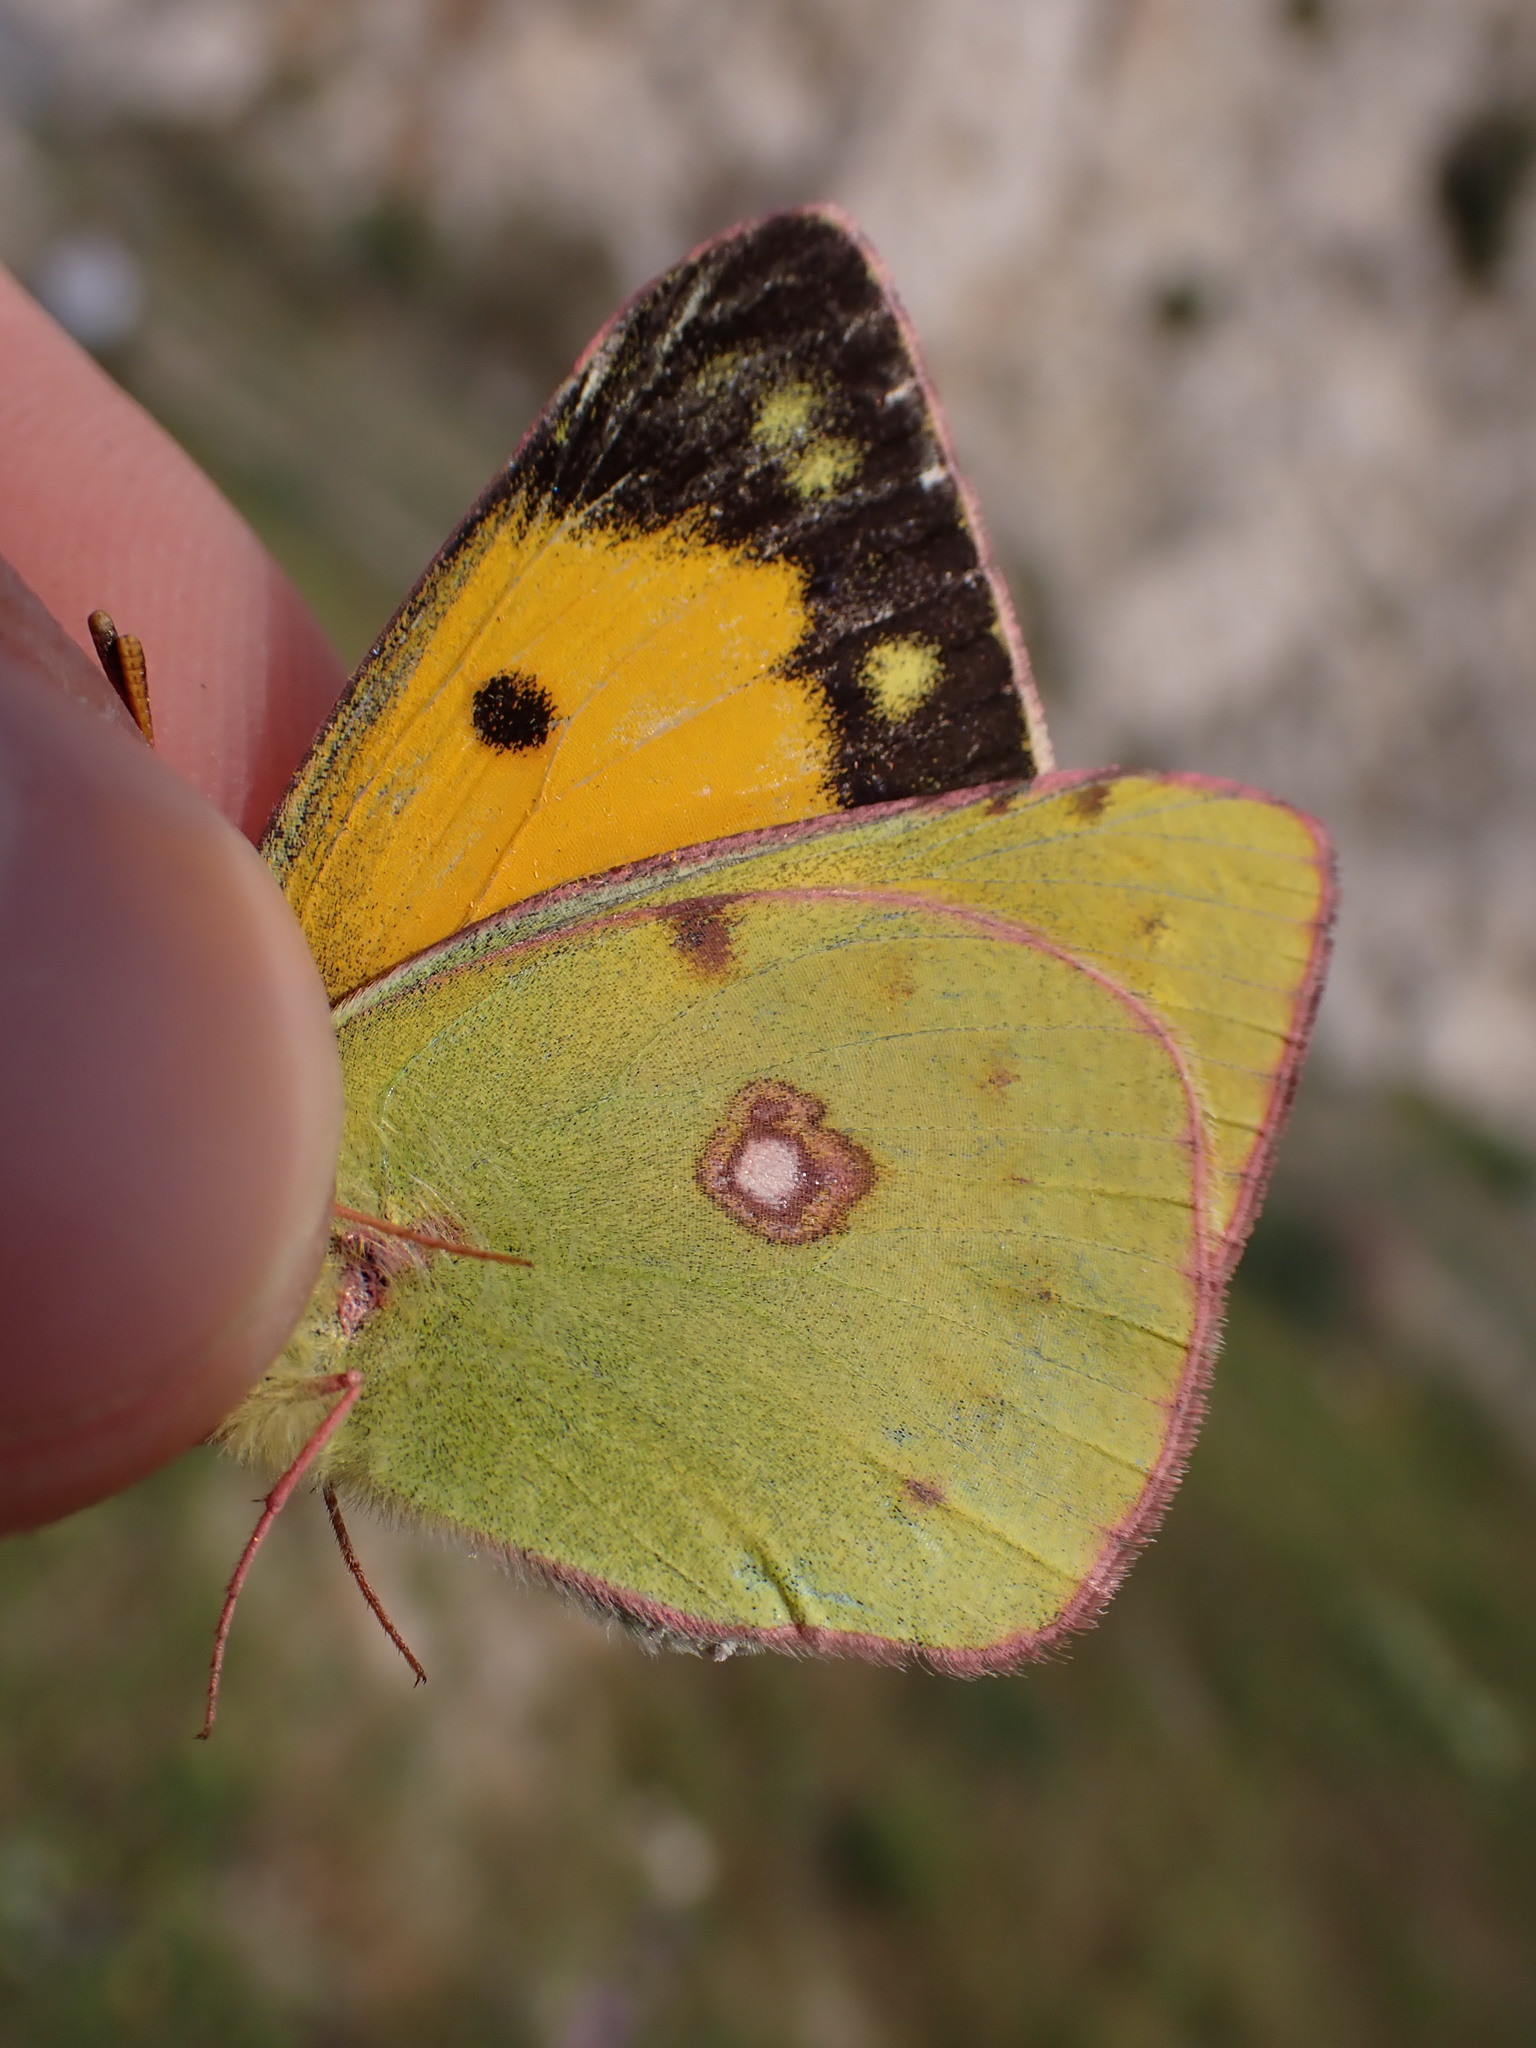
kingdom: Animalia
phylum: Arthropoda
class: Insecta
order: Lepidoptera
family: Pieridae
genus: Colias
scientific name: Colias croceus
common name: Clouded yellow
